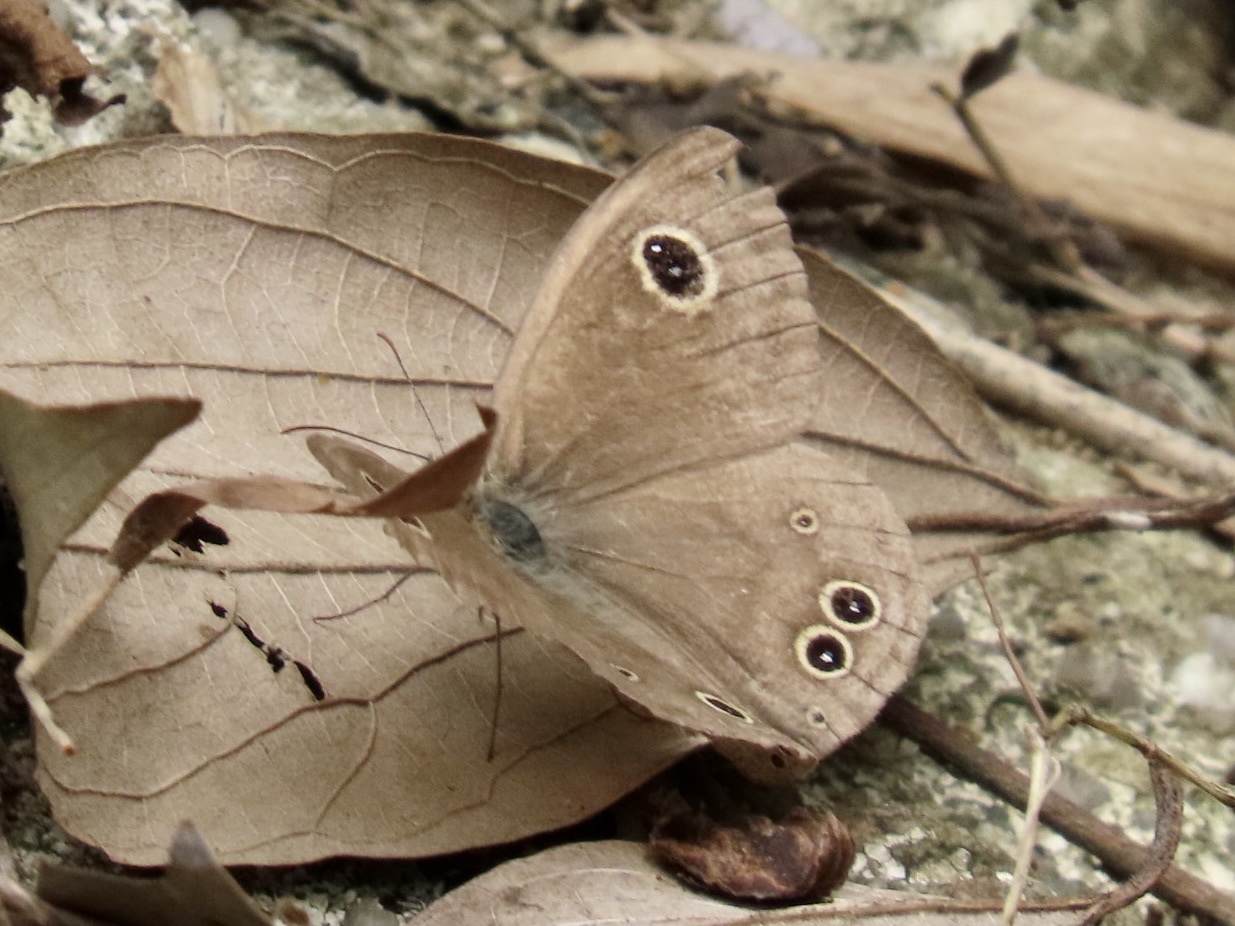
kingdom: Animalia
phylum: Arthropoda
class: Insecta
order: Lepidoptera
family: Nymphalidae
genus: Ypthima
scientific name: Ypthima baldus
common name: Common five-ring
